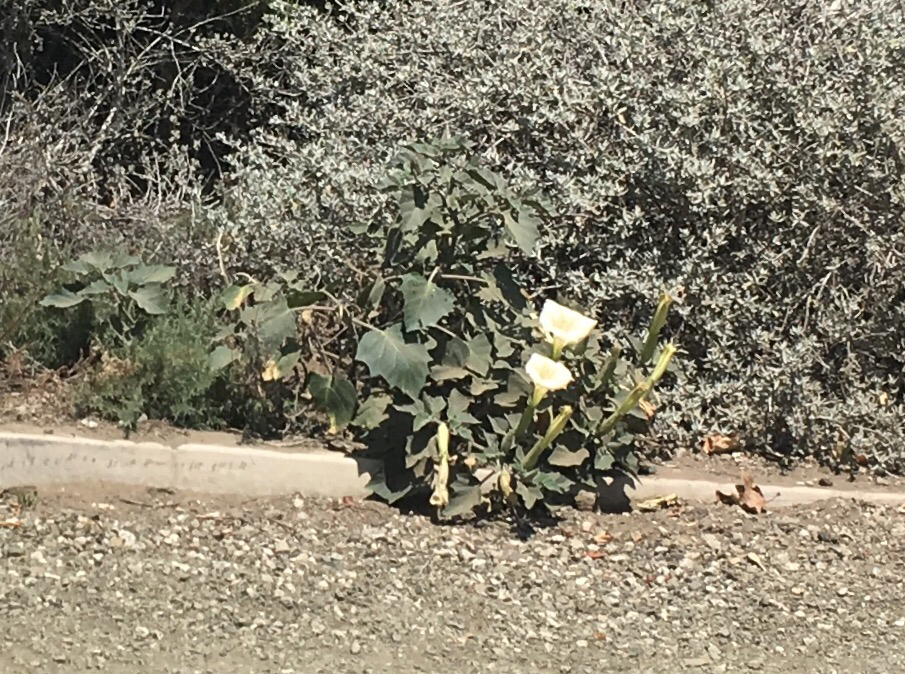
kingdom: Plantae
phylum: Tracheophyta
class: Magnoliopsida
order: Solanales
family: Solanaceae
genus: Datura
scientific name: Datura wrightii
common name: Sacred thorn-apple
